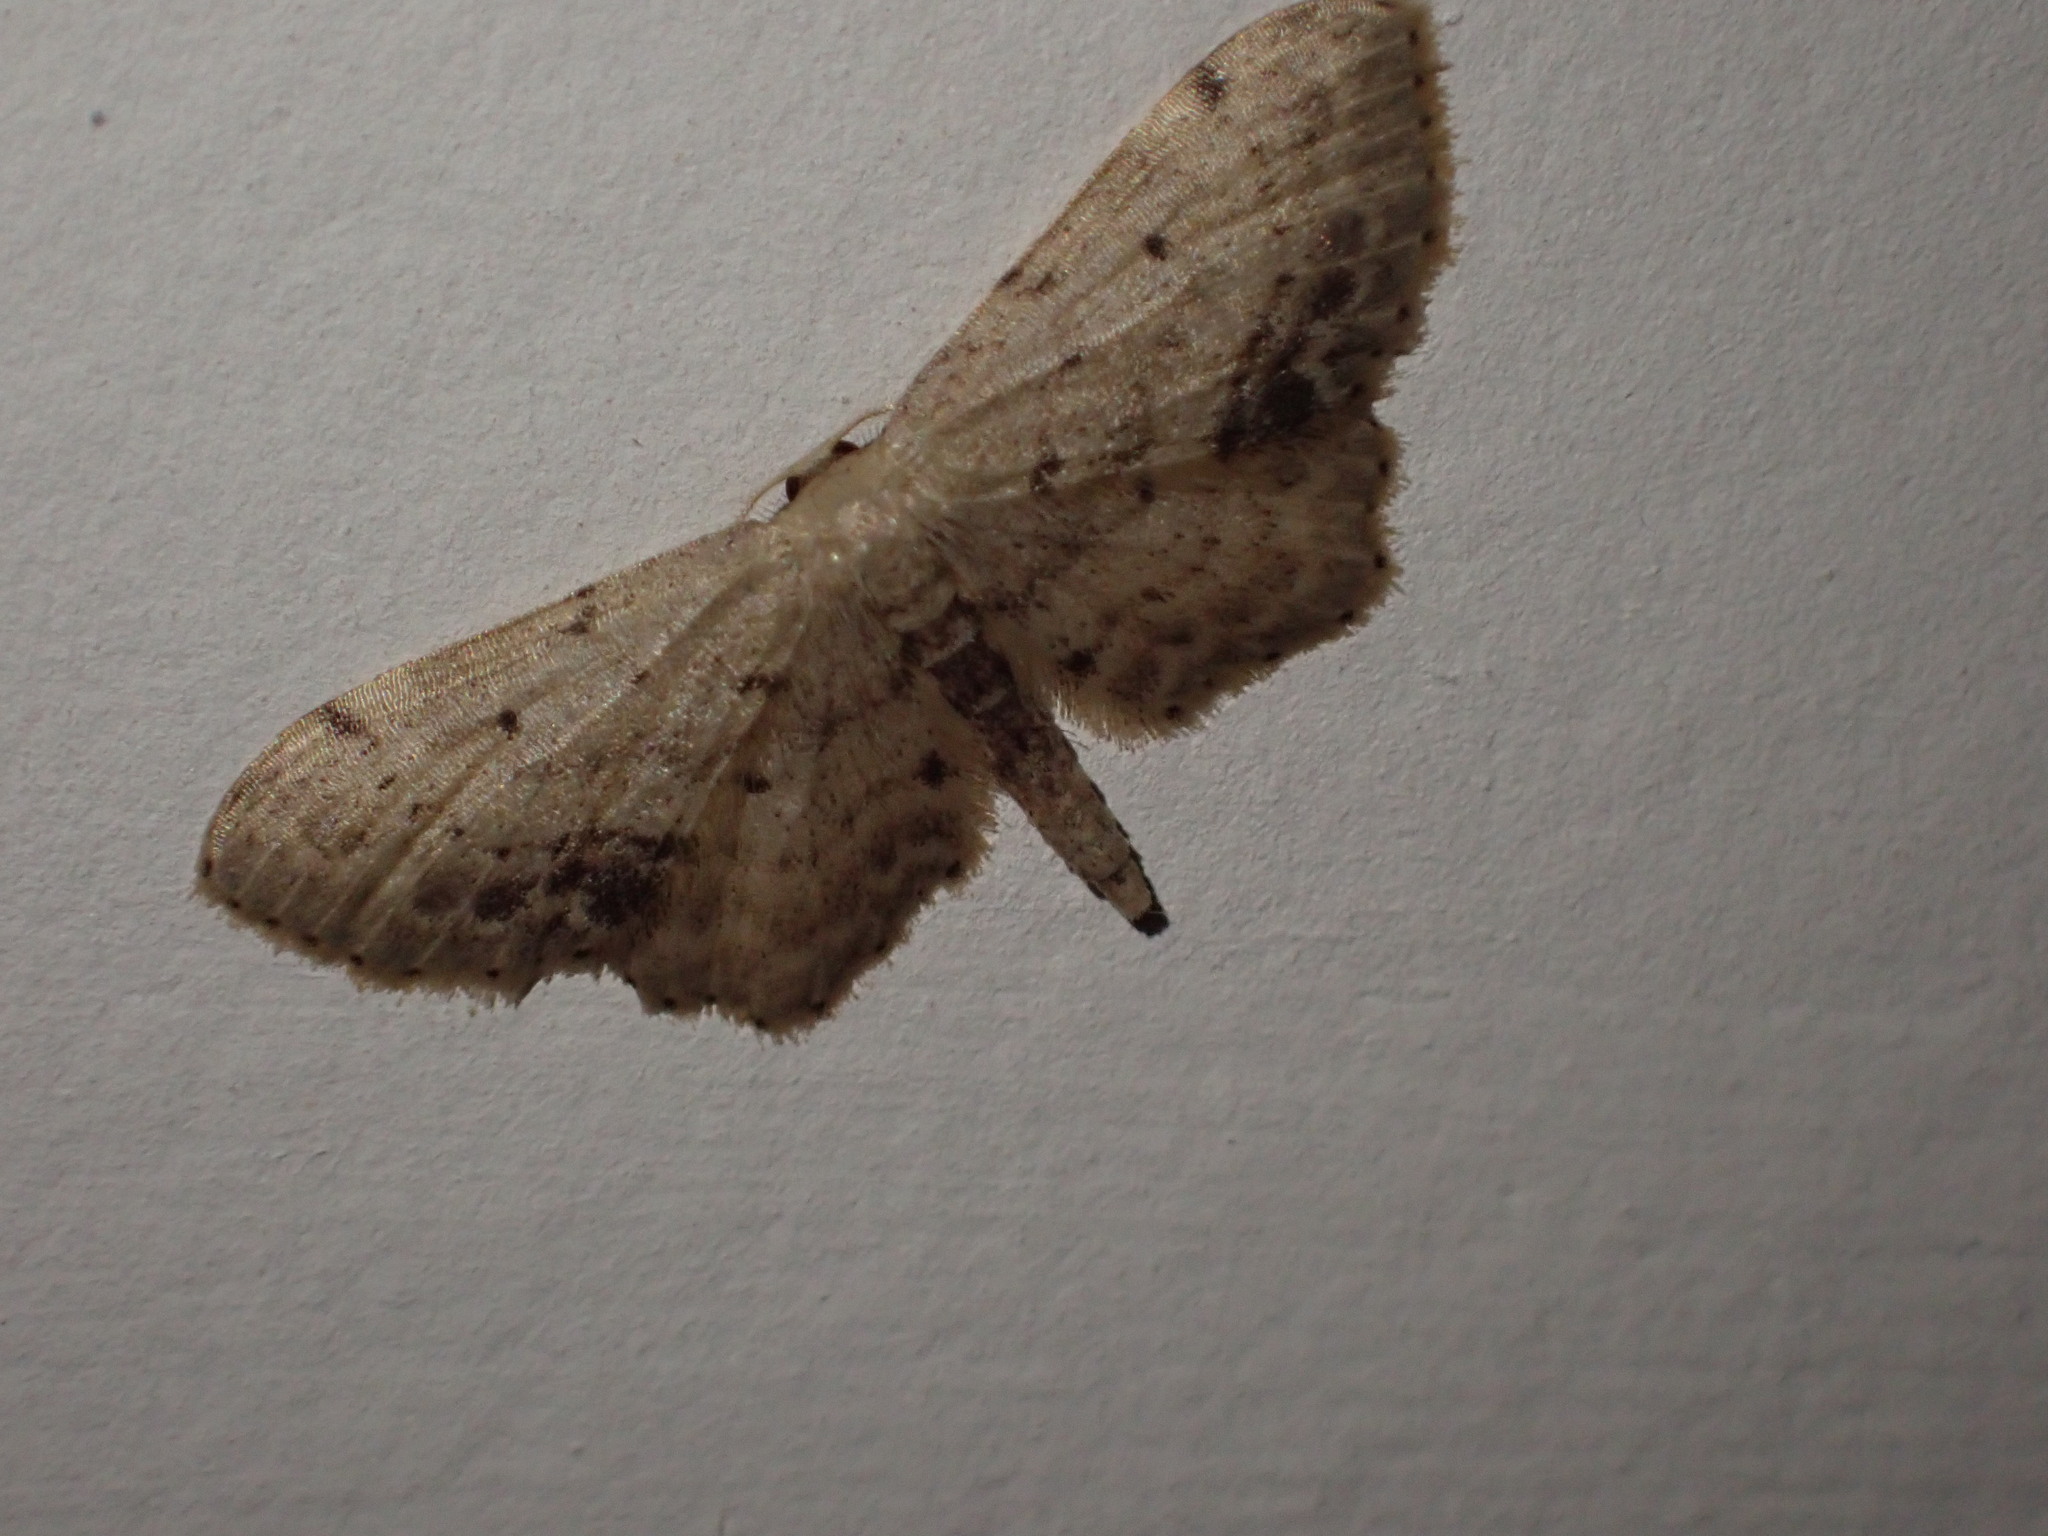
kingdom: Animalia
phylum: Arthropoda
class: Insecta
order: Lepidoptera
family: Geometridae
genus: Idaea
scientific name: Idaea dimidiata
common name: Single-dotted wave
